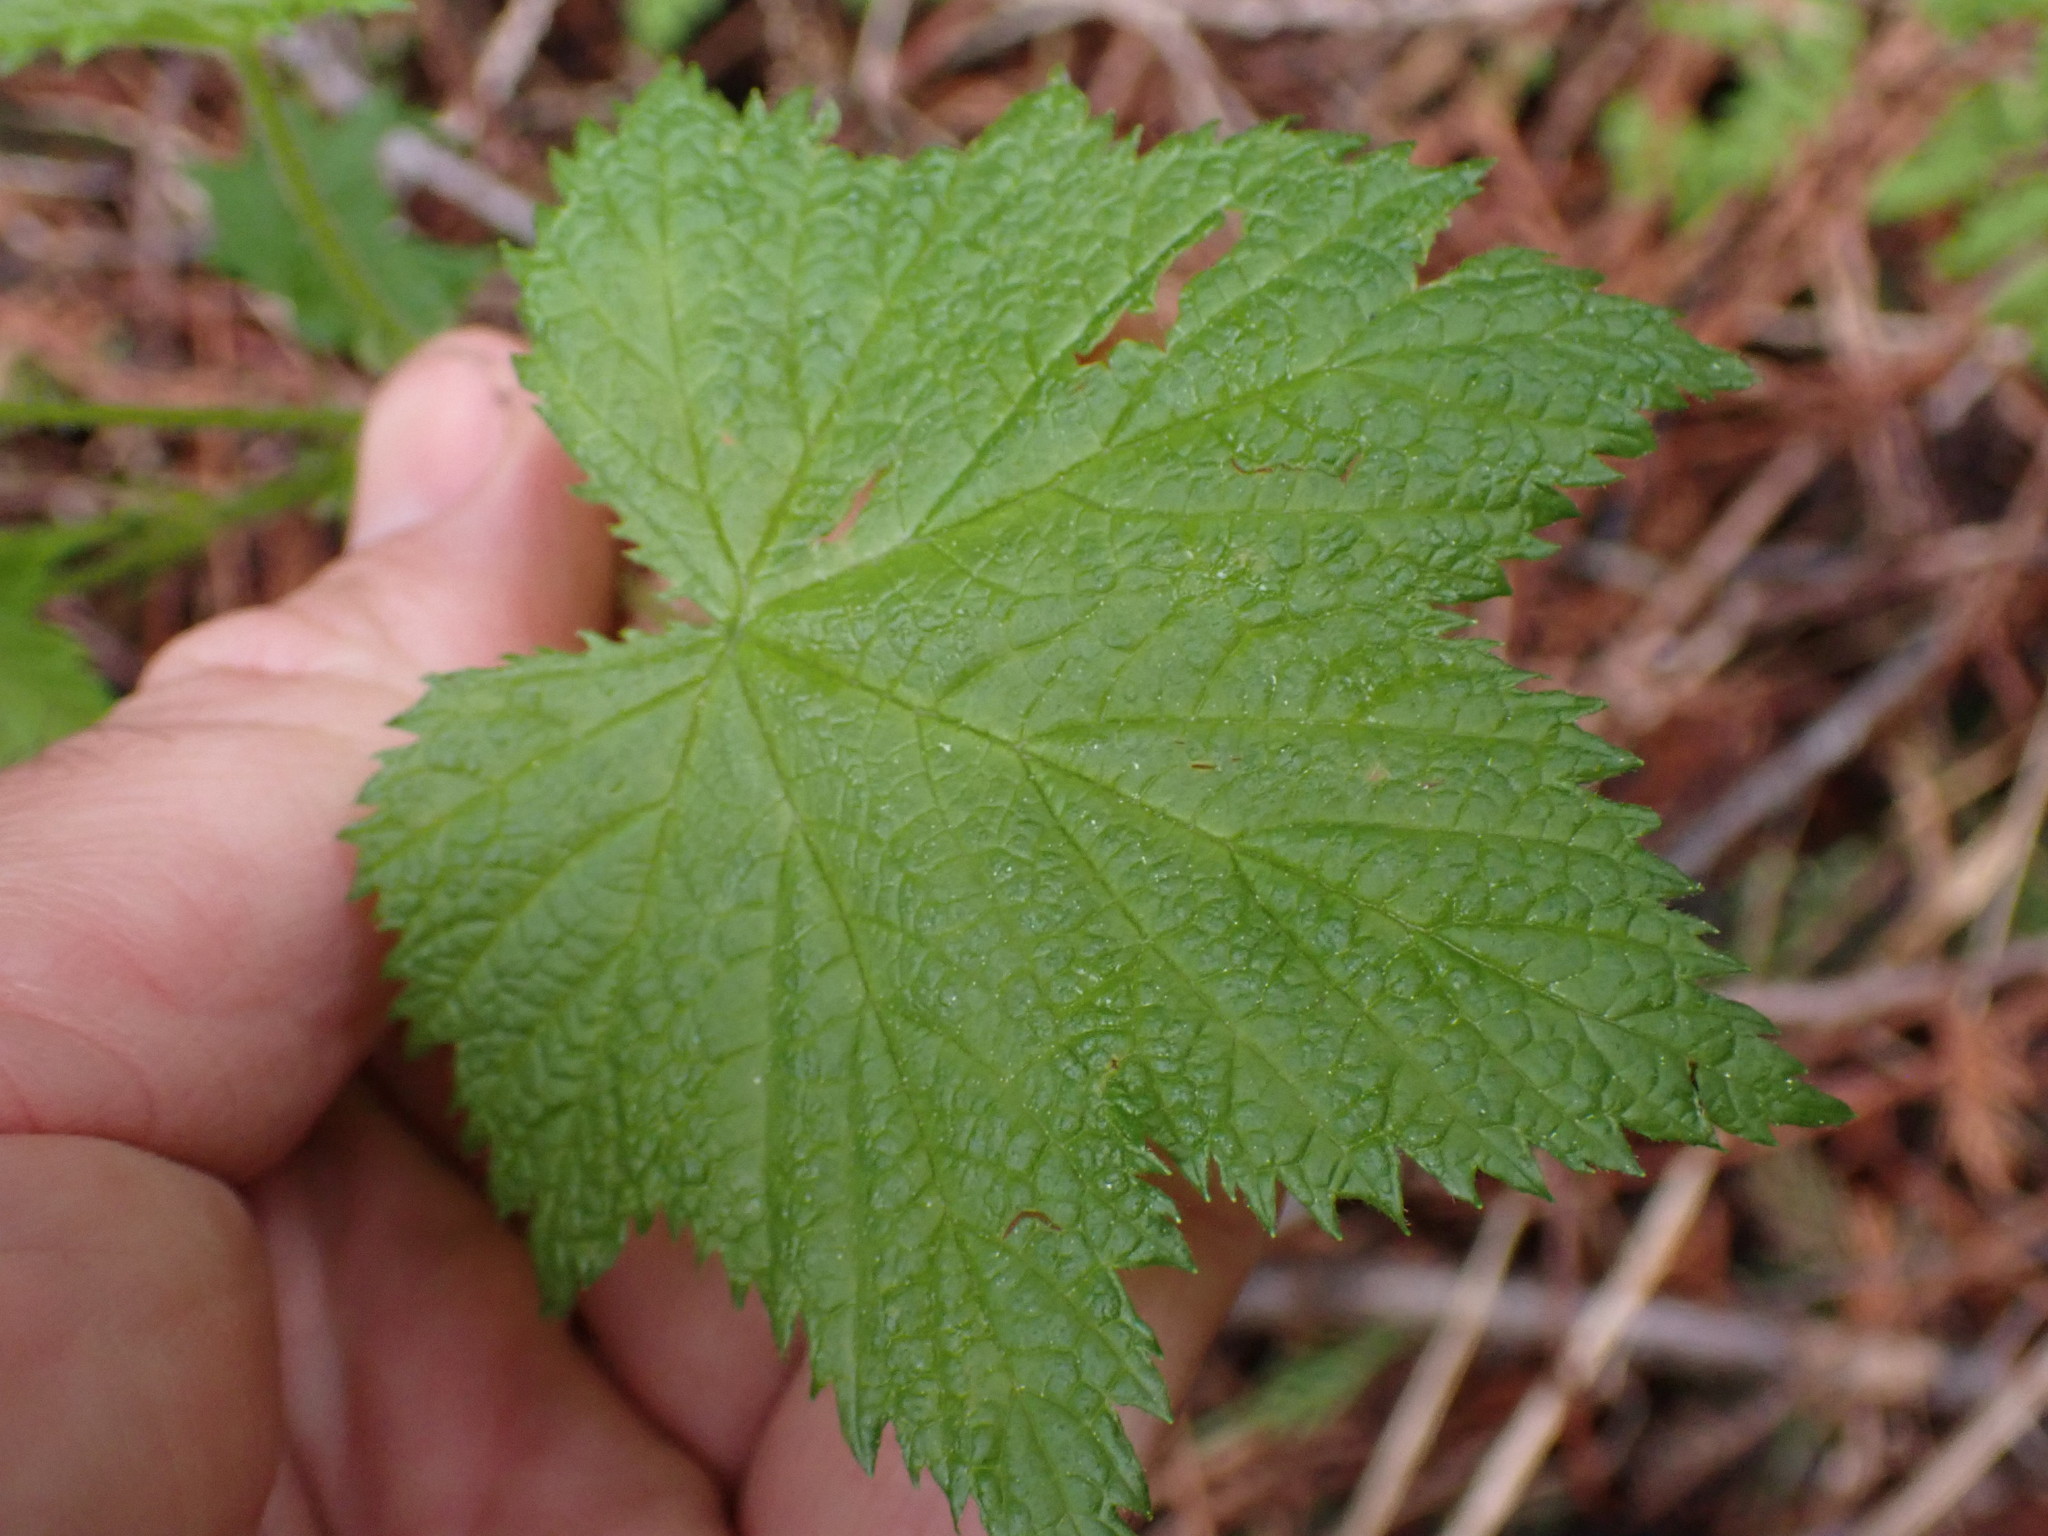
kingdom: Plantae
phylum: Tracheophyta
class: Magnoliopsida
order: Rosales
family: Rosaceae
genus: Rubus
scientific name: Rubus parviflorus
